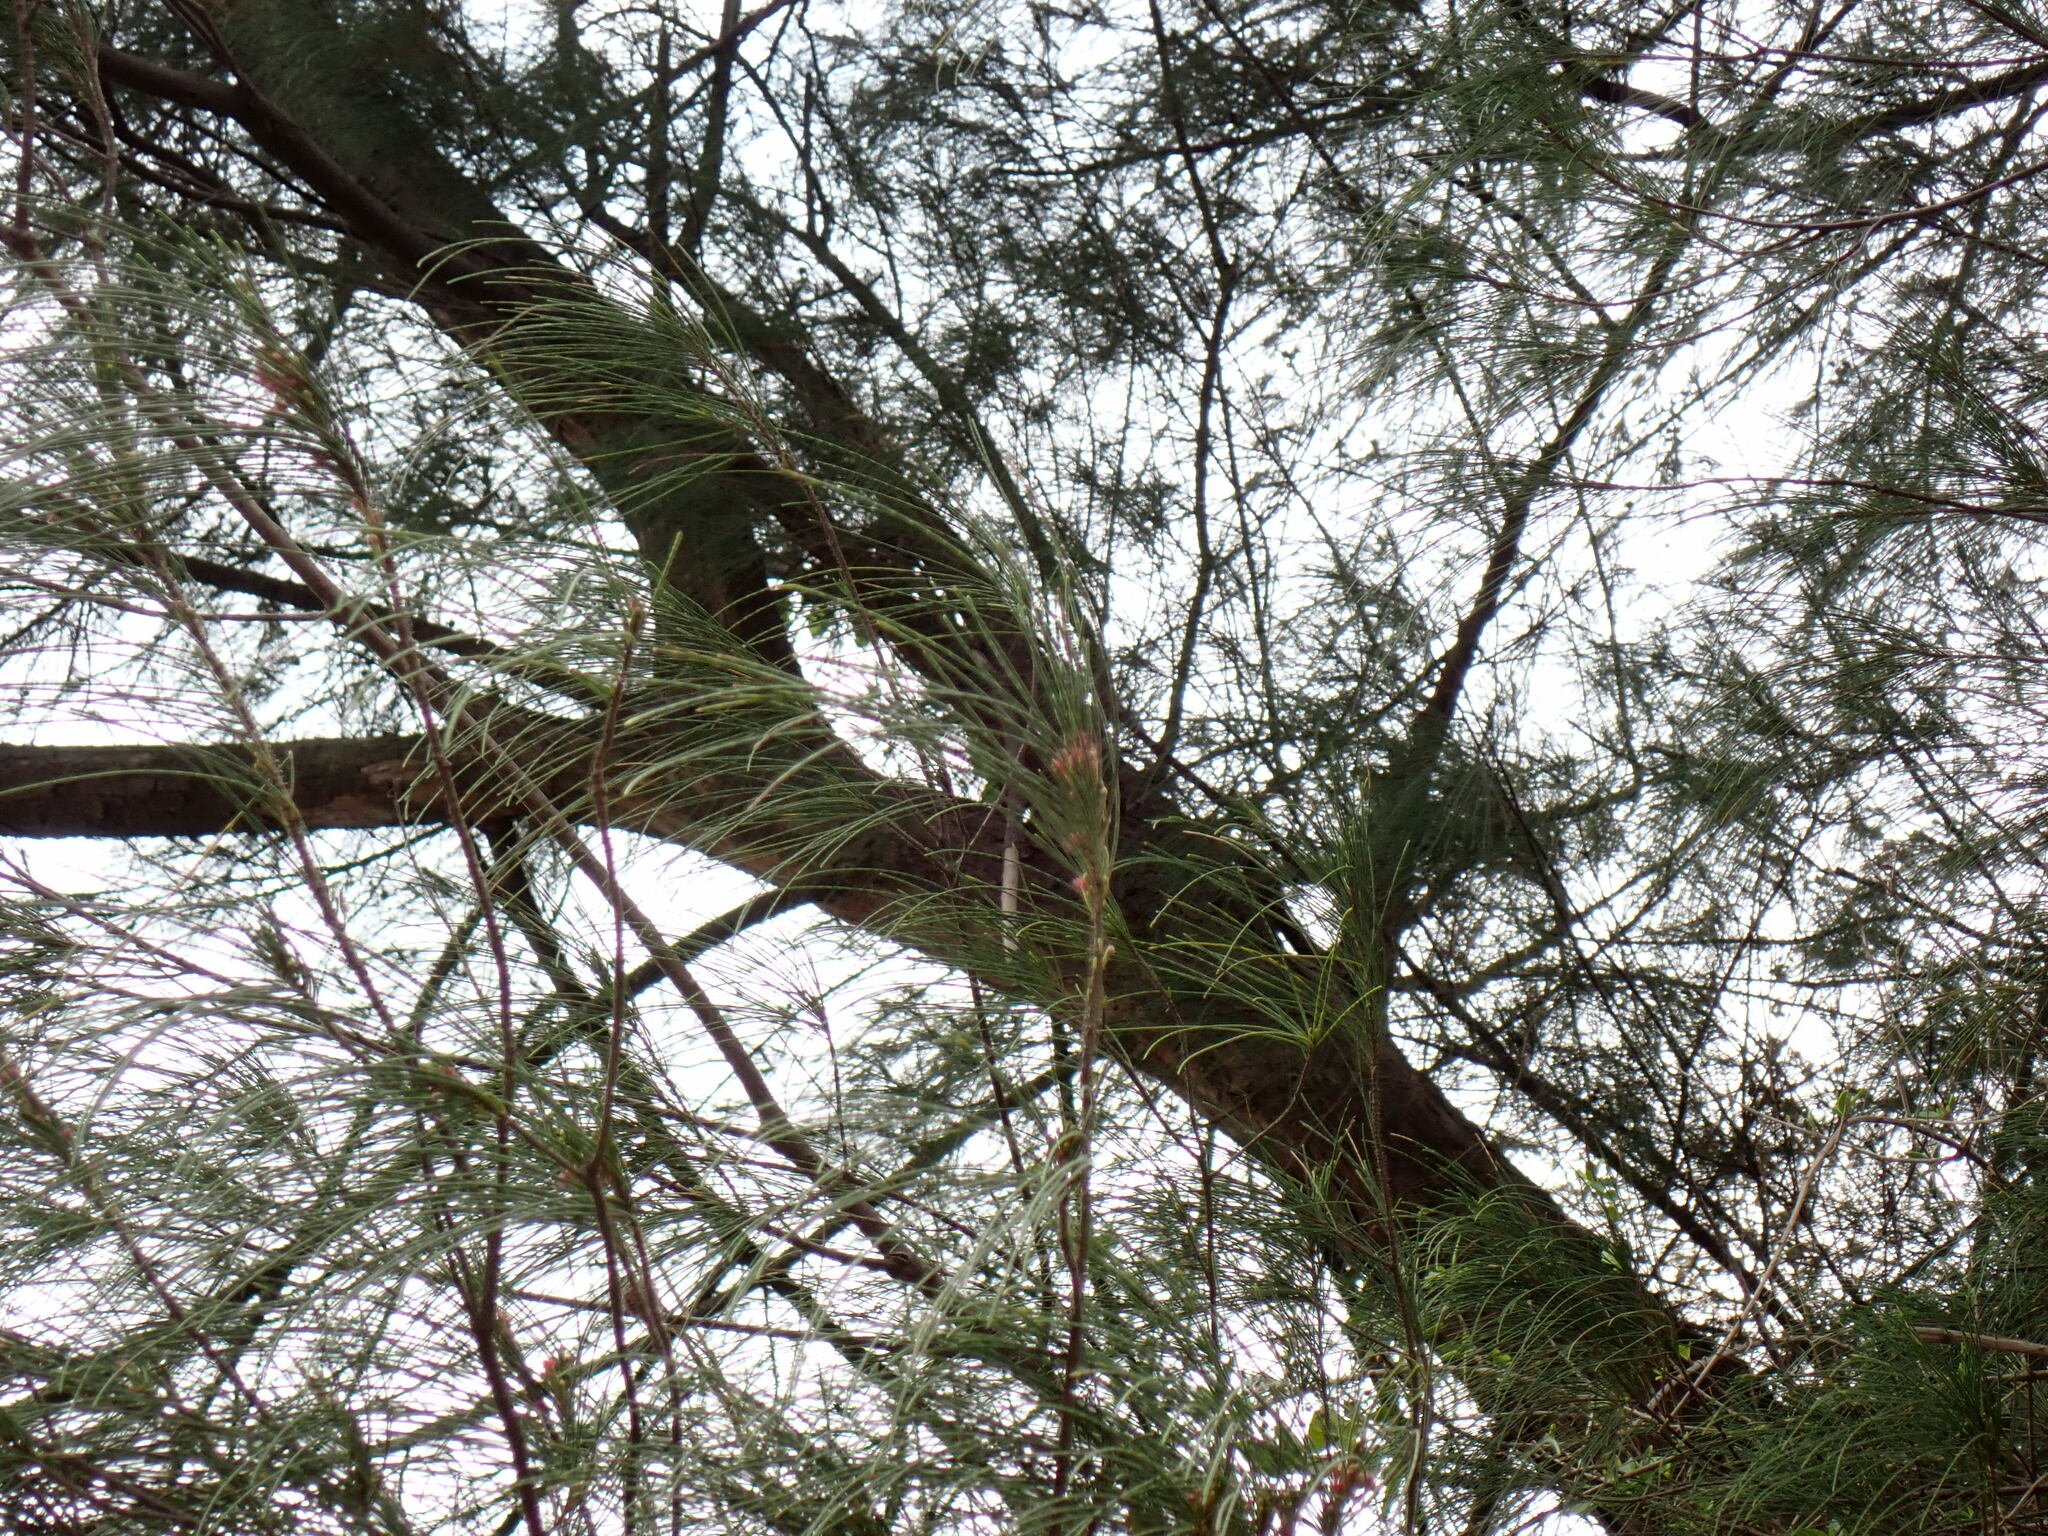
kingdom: Plantae
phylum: Tracheophyta
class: Magnoliopsida
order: Fagales
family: Casuarinaceae
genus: Casuarina
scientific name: Casuarina equisetifolia
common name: Beach sheoak
